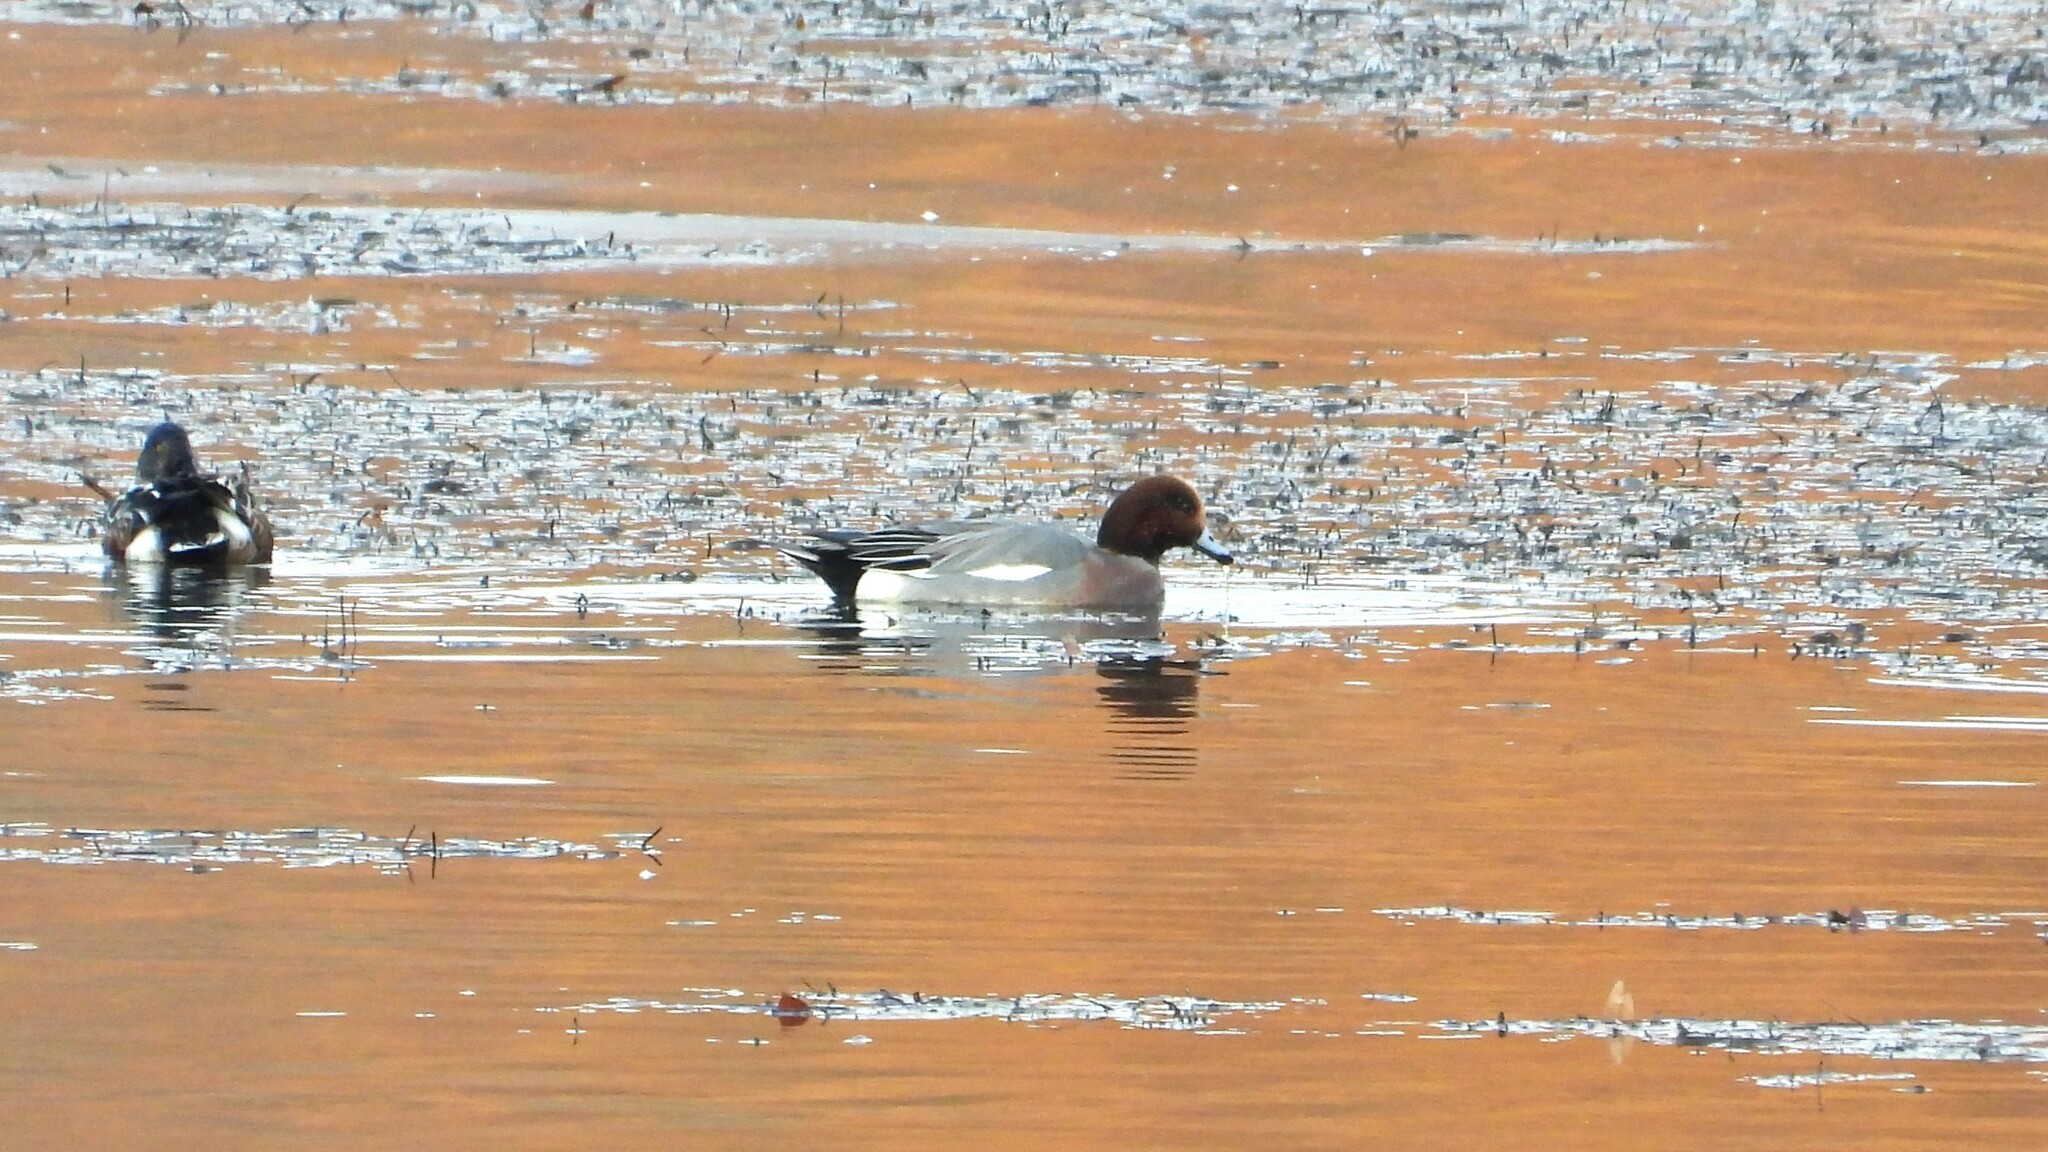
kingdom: Animalia
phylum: Chordata
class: Aves
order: Anseriformes
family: Anatidae
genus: Mareca
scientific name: Mareca penelope
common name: Eurasian wigeon
